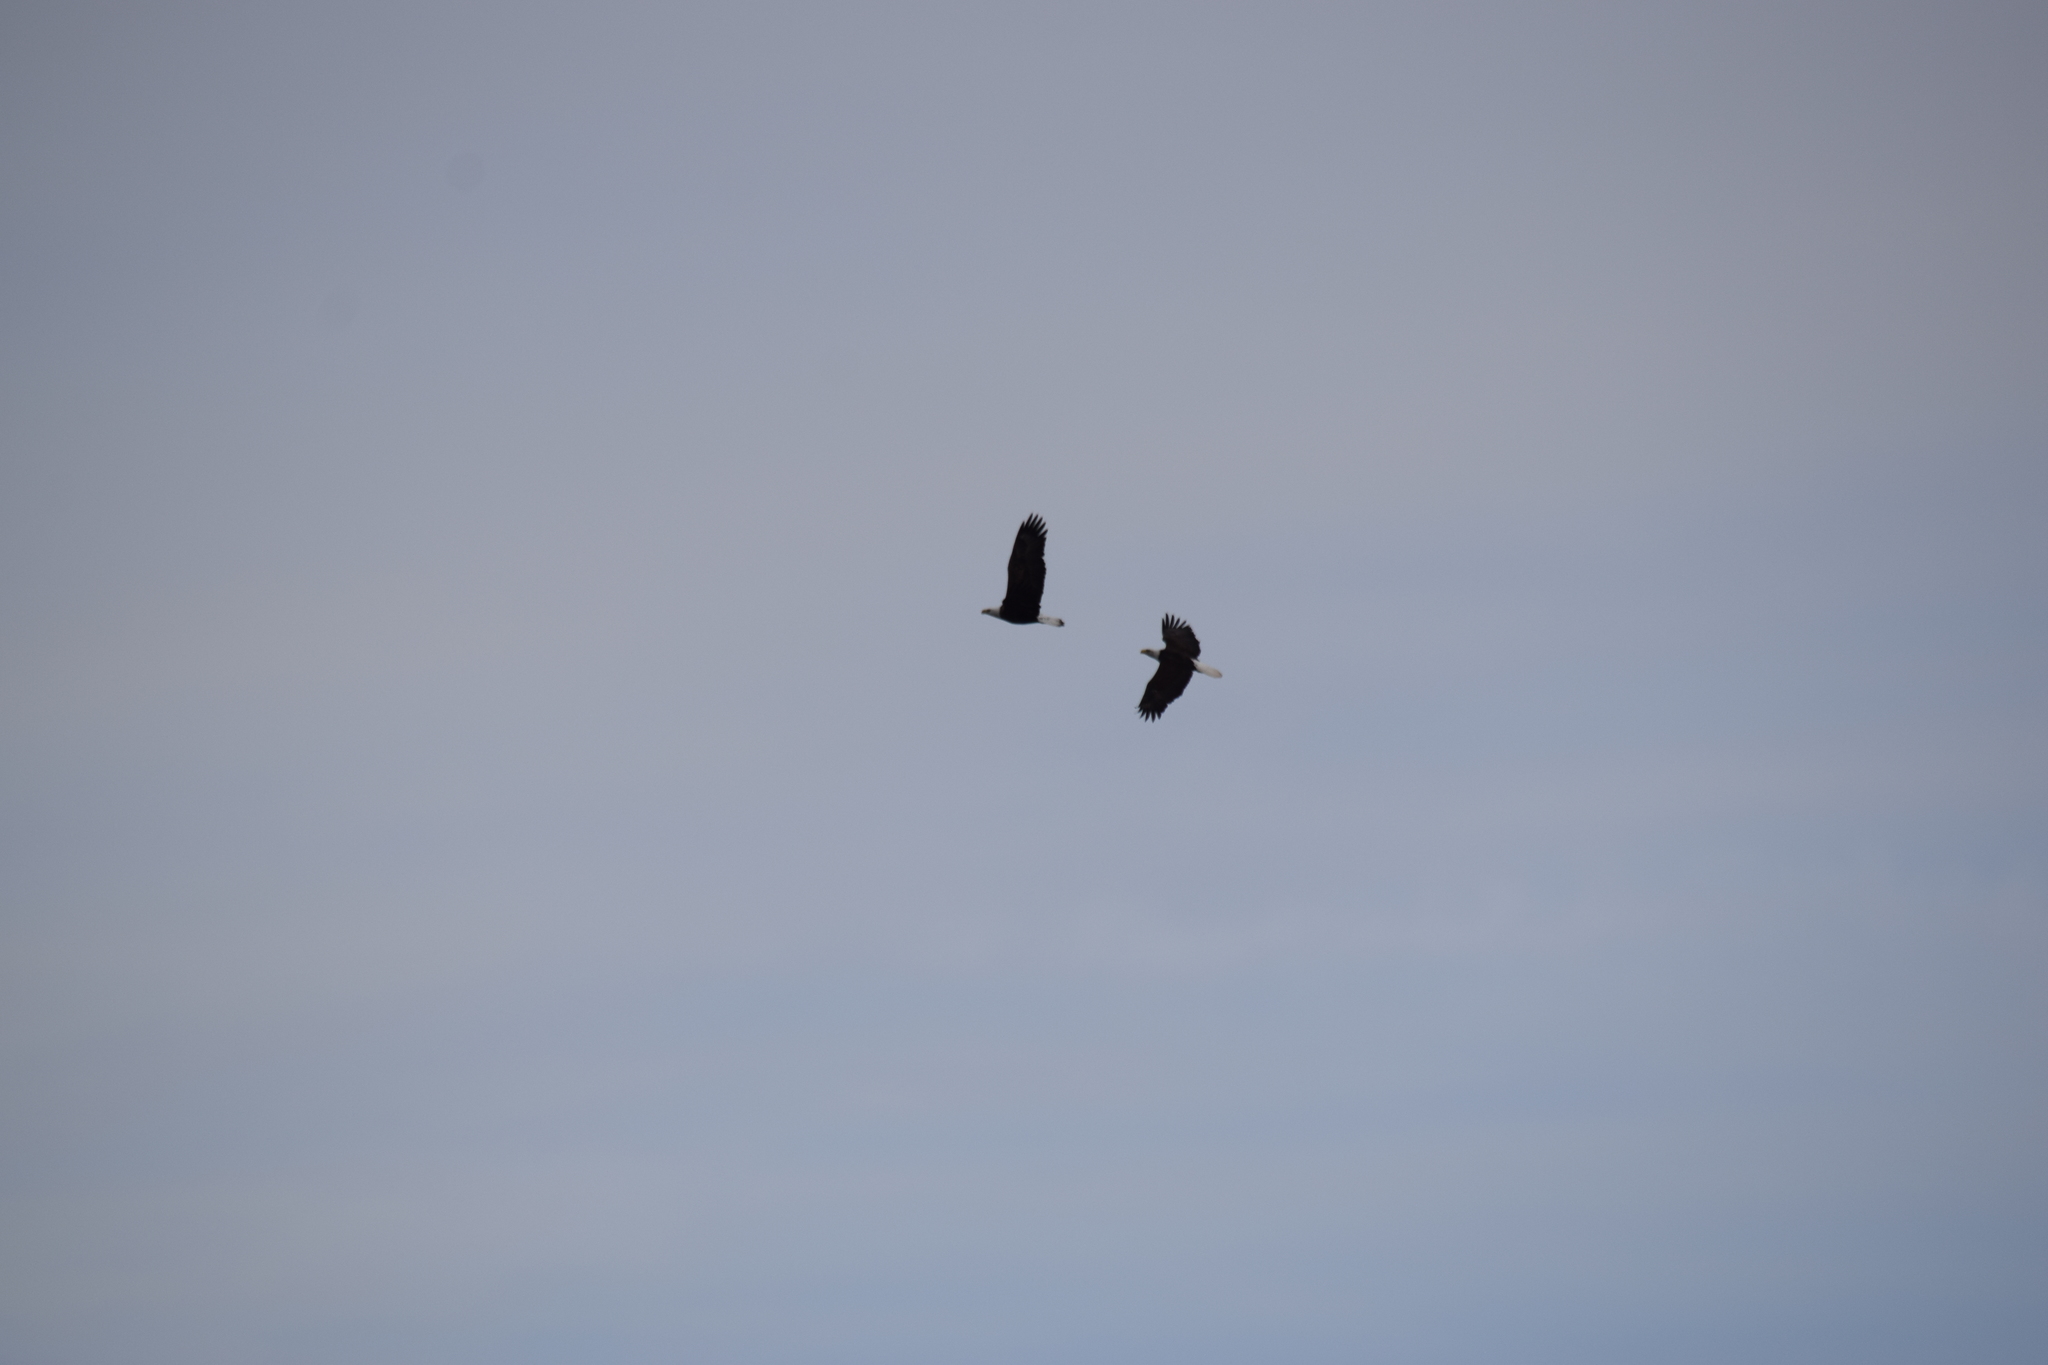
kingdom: Animalia
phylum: Chordata
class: Aves
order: Accipitriformes
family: Accipitridae
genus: Haliaeetus
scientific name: Haliaeetus leucocephalus
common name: Bald eagle
